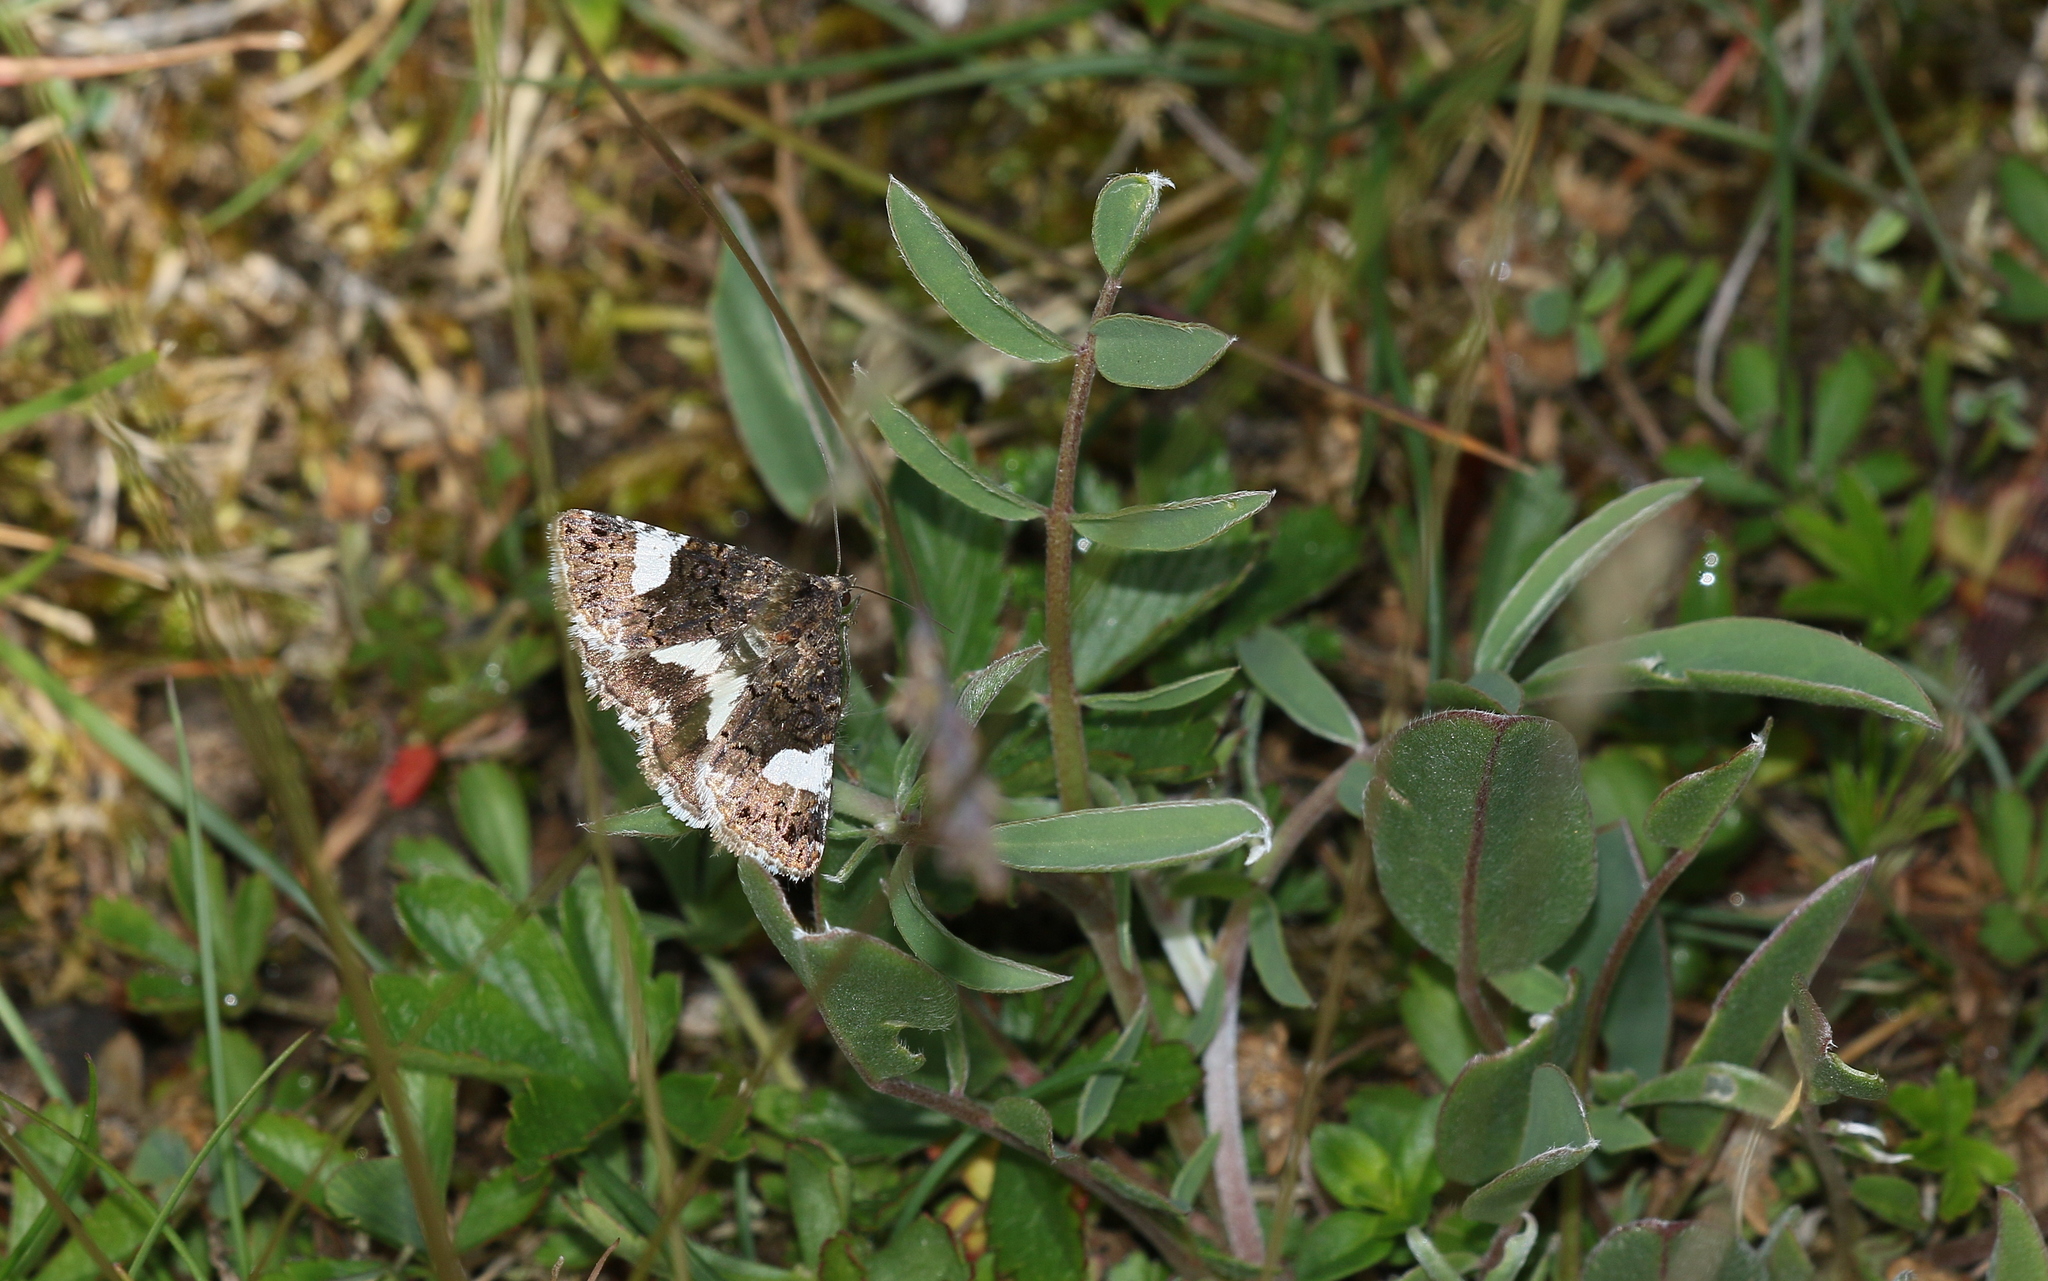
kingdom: Animalia
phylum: Arthropoda
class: Insecta
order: Lepidoptera
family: Erebidae
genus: Tyta
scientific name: Tyta luctuosa
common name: Four-spotted
